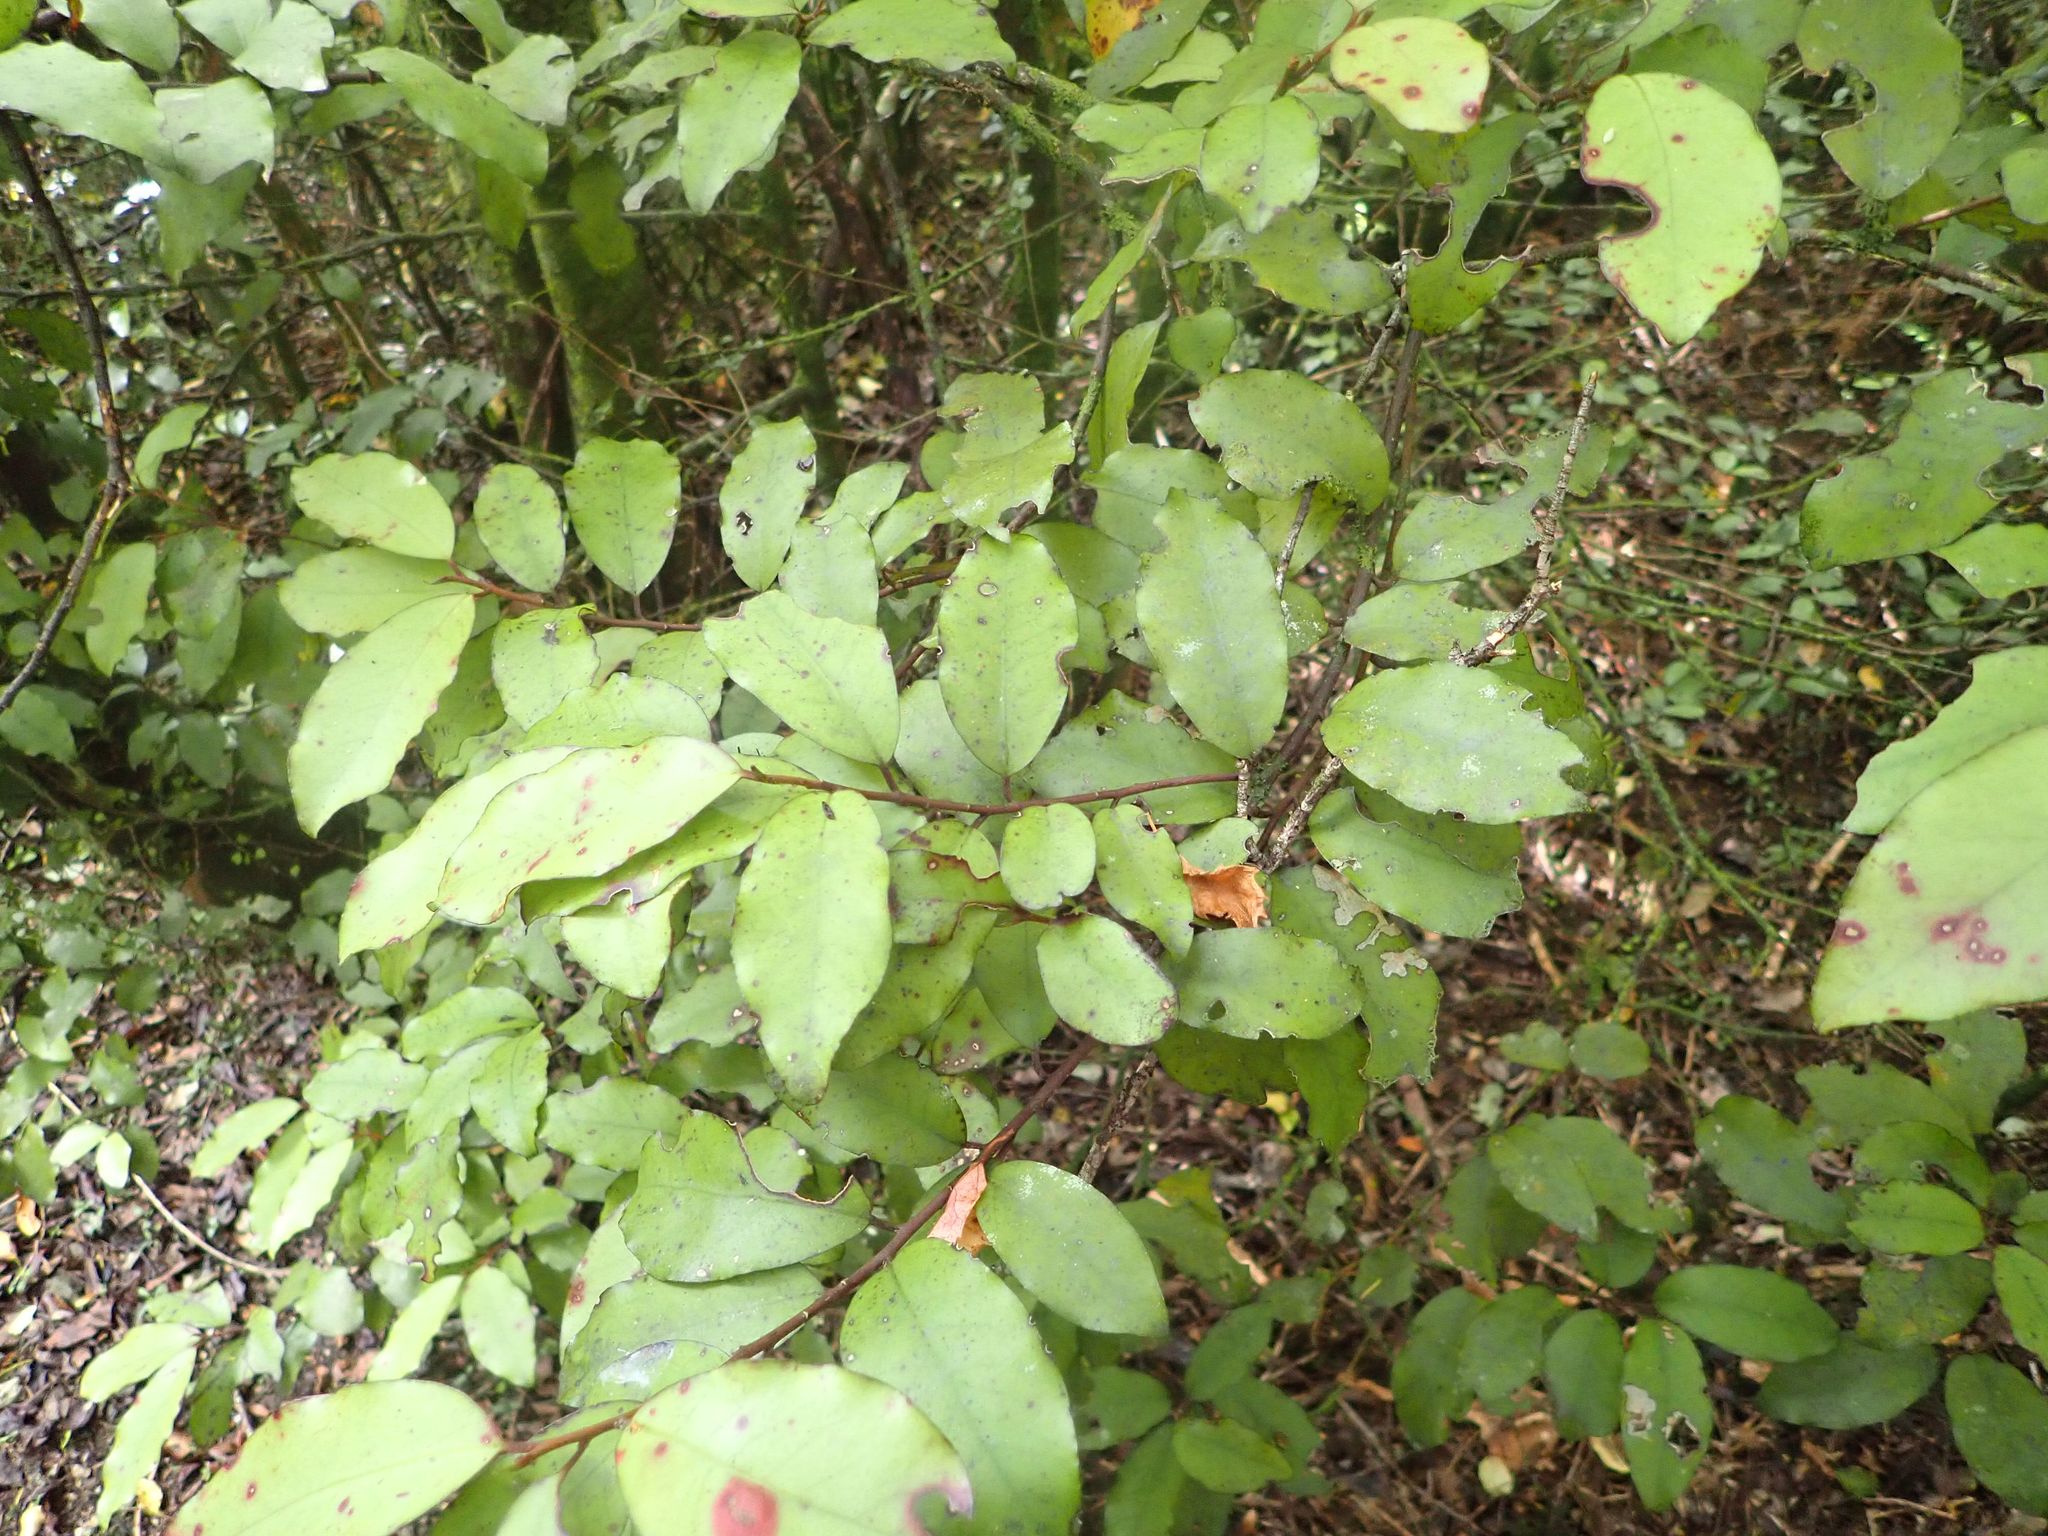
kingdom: Plantae
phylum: Tracheophyta
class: Magnoliopsida
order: Canellales
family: Winteraceae
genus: Pseudowintera
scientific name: Pseudowintera colorata
